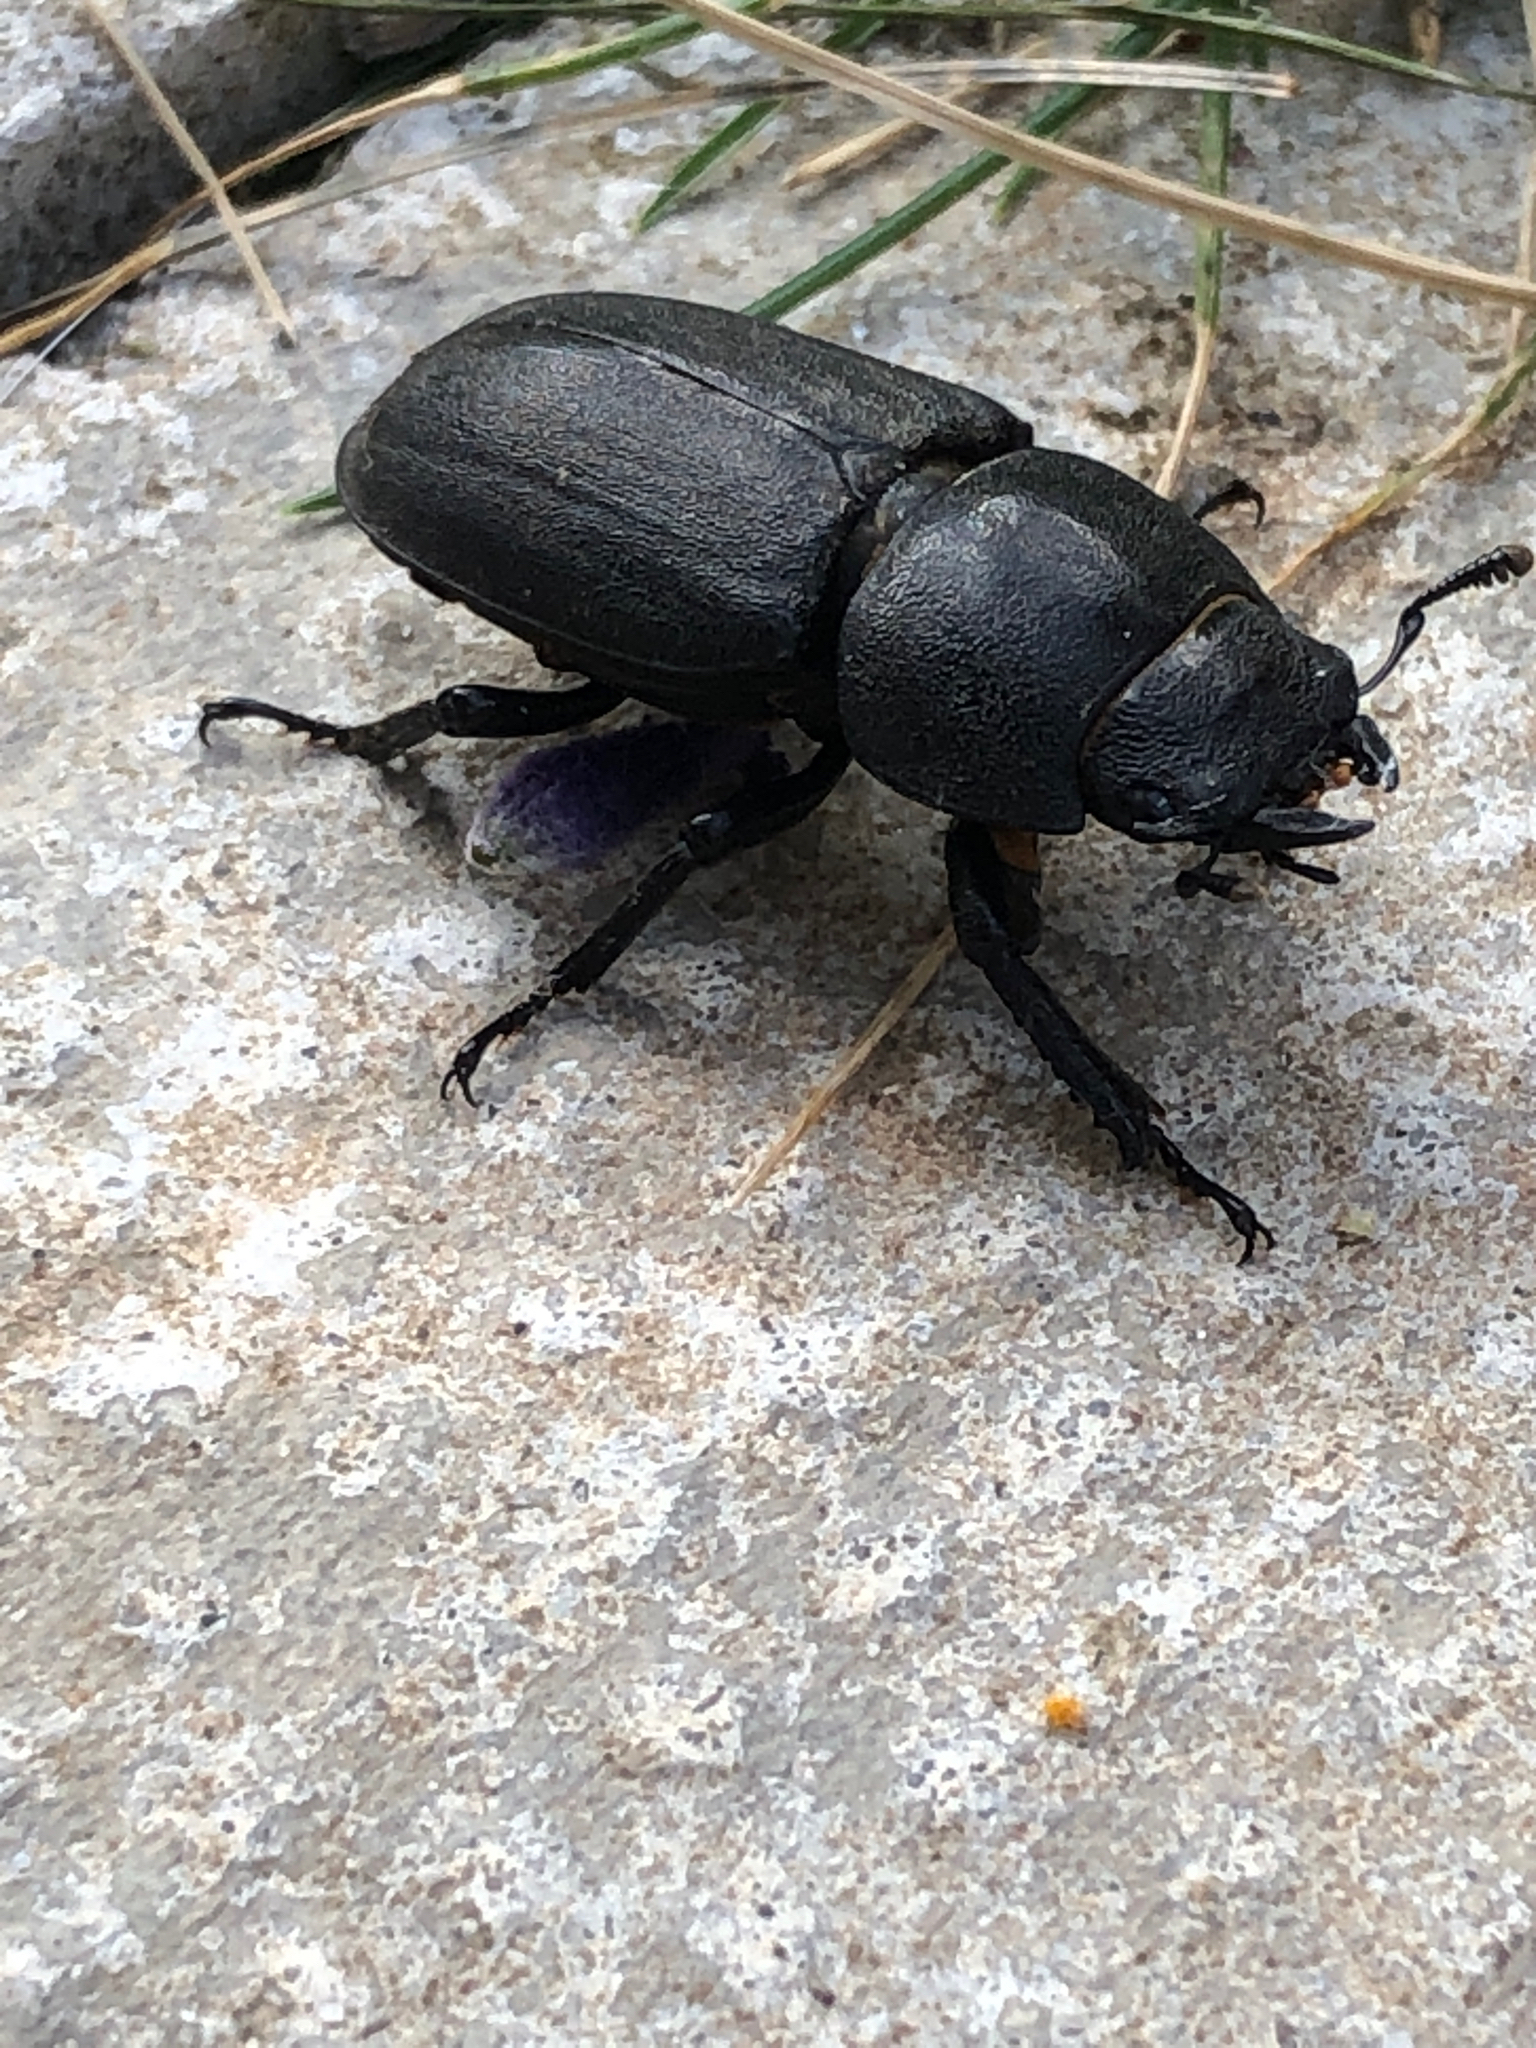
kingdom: Animalia
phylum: Arthropoda
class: Insecta
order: Coleoptera
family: Lucanidae
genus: Dorcus
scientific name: Dorcus parallelipipedus
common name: Lesser stag beetle
